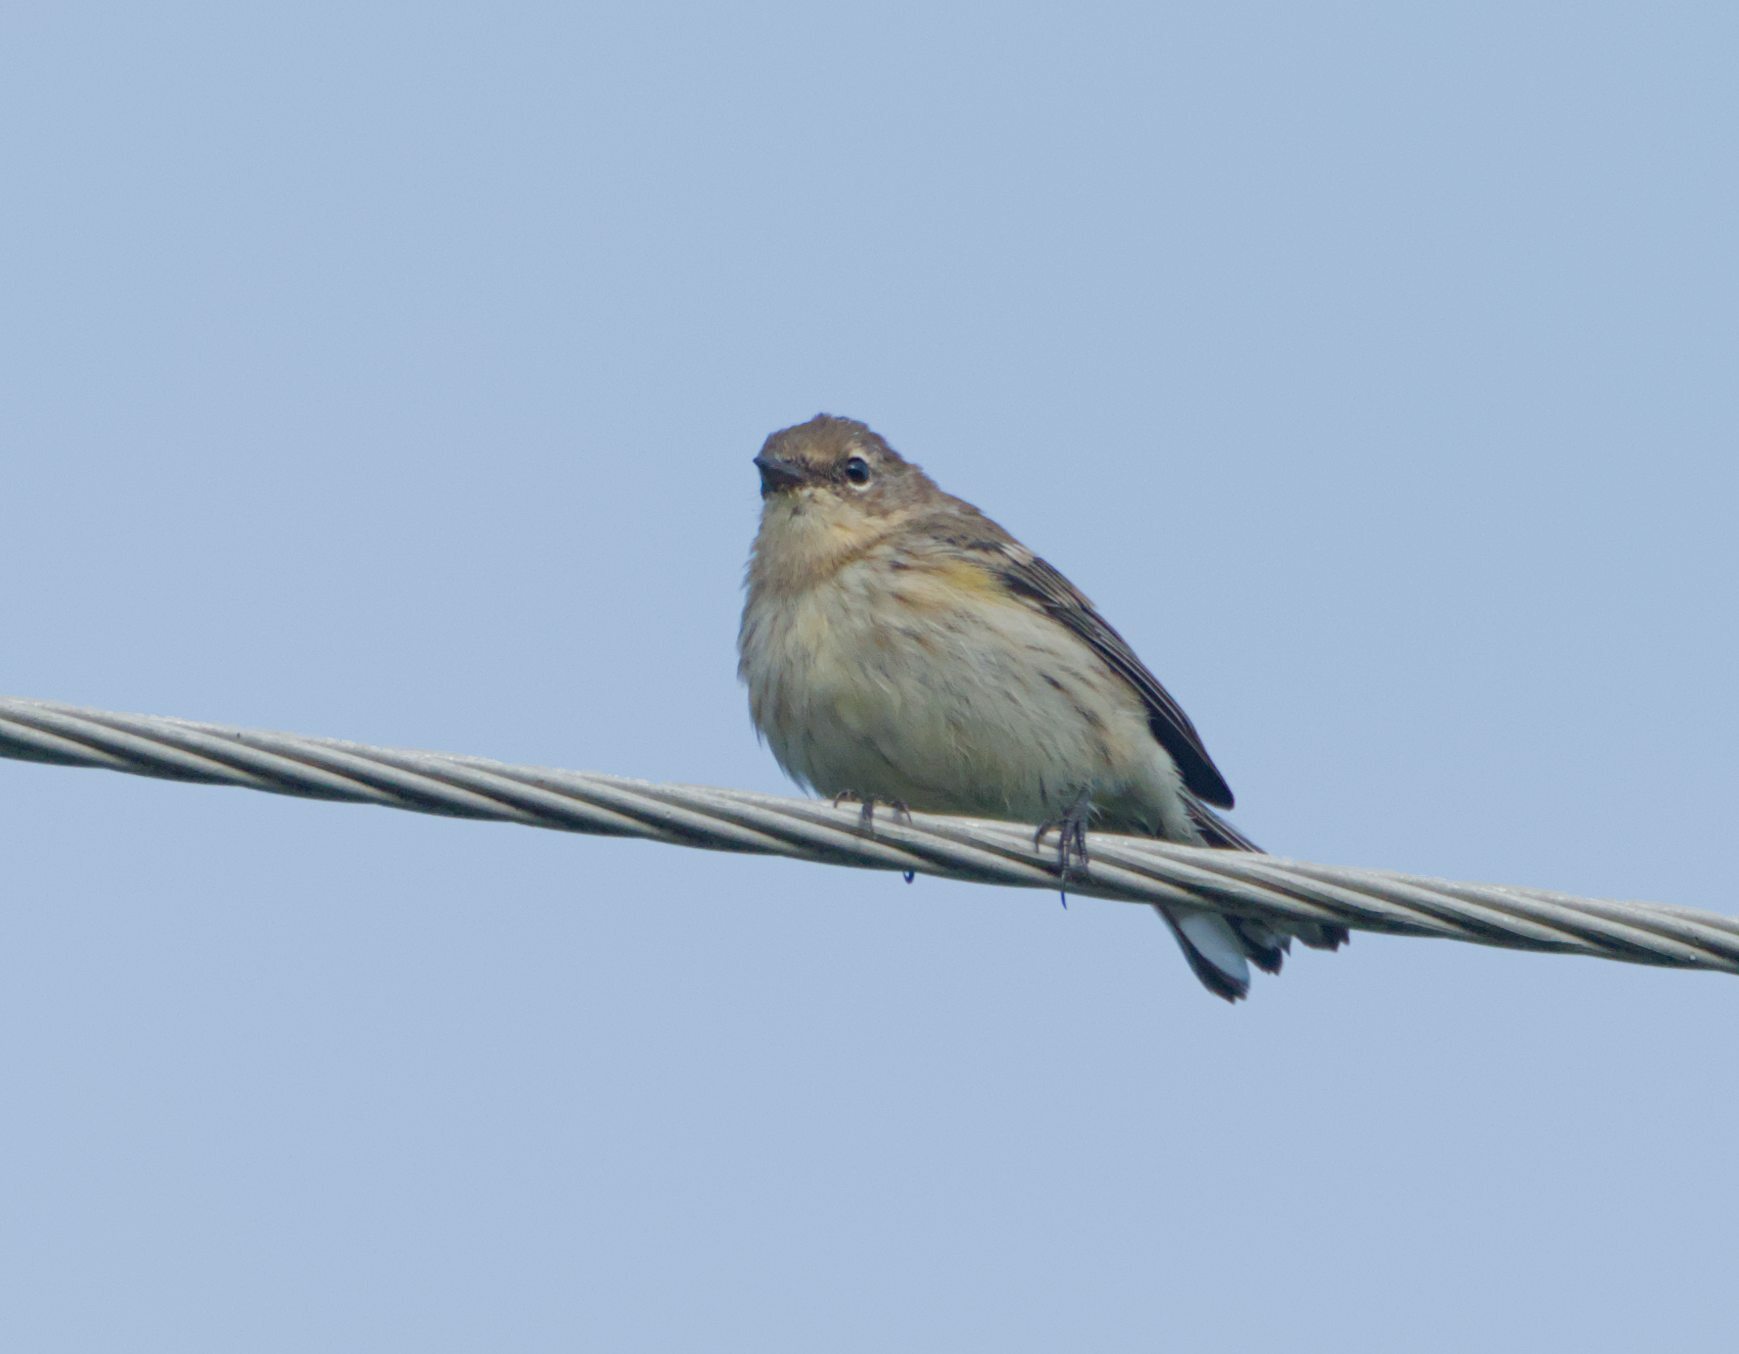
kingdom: Animalia
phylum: Chordata
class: Aves
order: Passeriformes
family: Parulidae
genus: Setophaga
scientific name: Setophaga coronata
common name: Myrtle warbler
